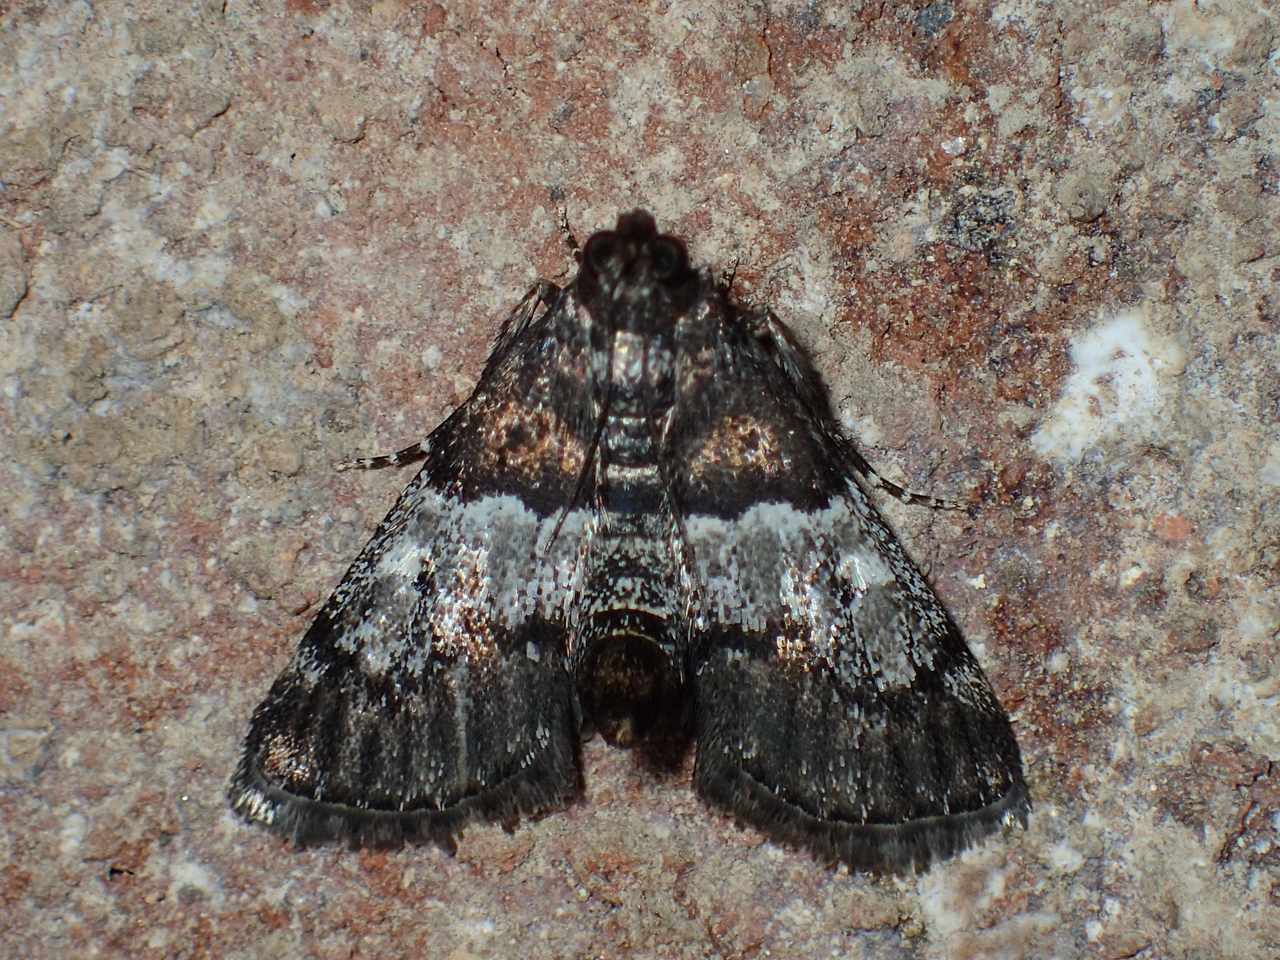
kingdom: Animalia
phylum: Arthropoda
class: Insecta
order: Lepidoptera
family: Pyralidae
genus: Macalla
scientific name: Macalla zelleri
